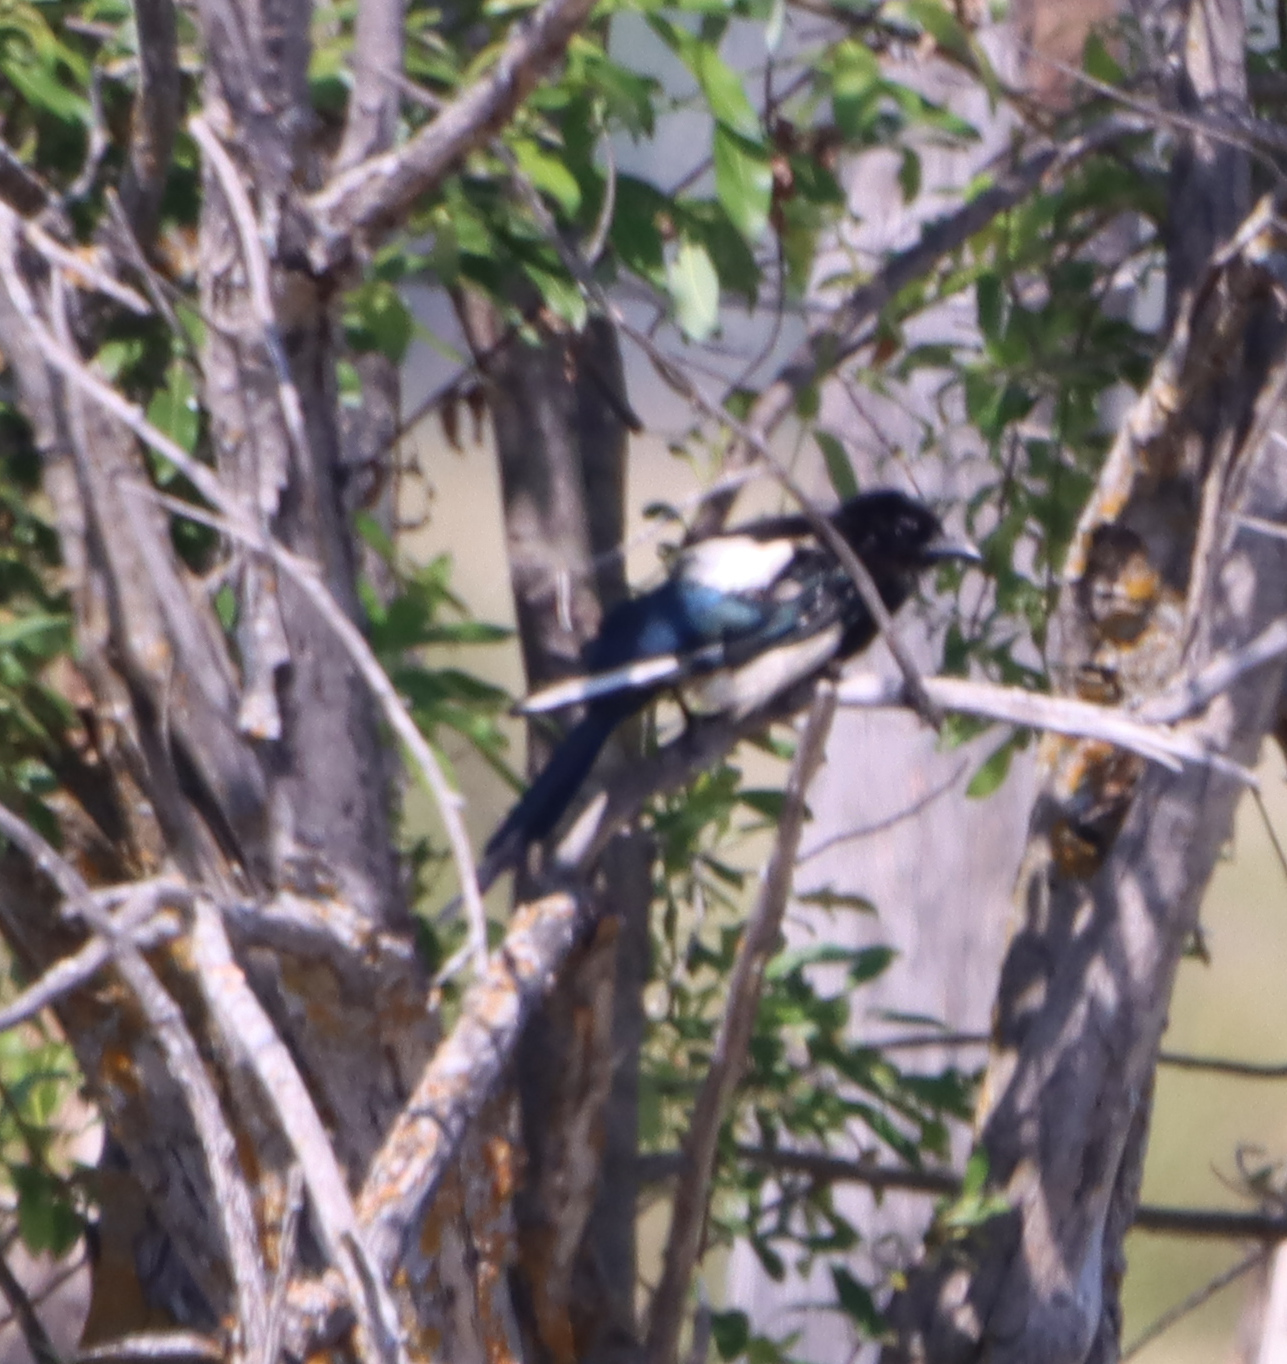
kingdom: Animalia
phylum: Chordata
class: Aves
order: Passeriformes
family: Corvidae
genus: Pica
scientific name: Pica hudsonia
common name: Black-billed magpie
